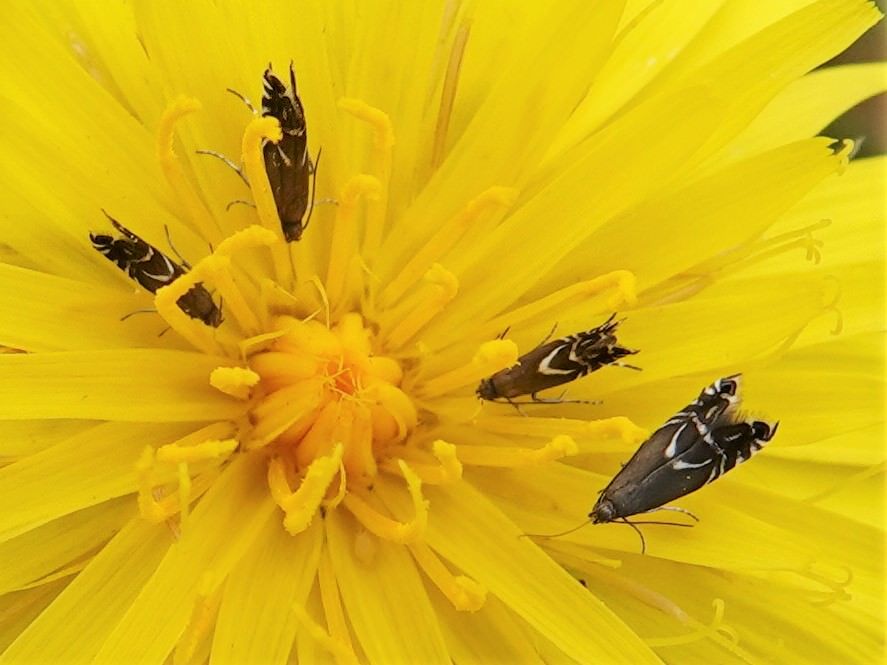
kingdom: Animalia
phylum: Arthropoda
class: Insecta
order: Lepidoptera
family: Glyphipterigidae
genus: Glyphipterix
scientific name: Glyphipterix simpliciella
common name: Cocksfoot moth
